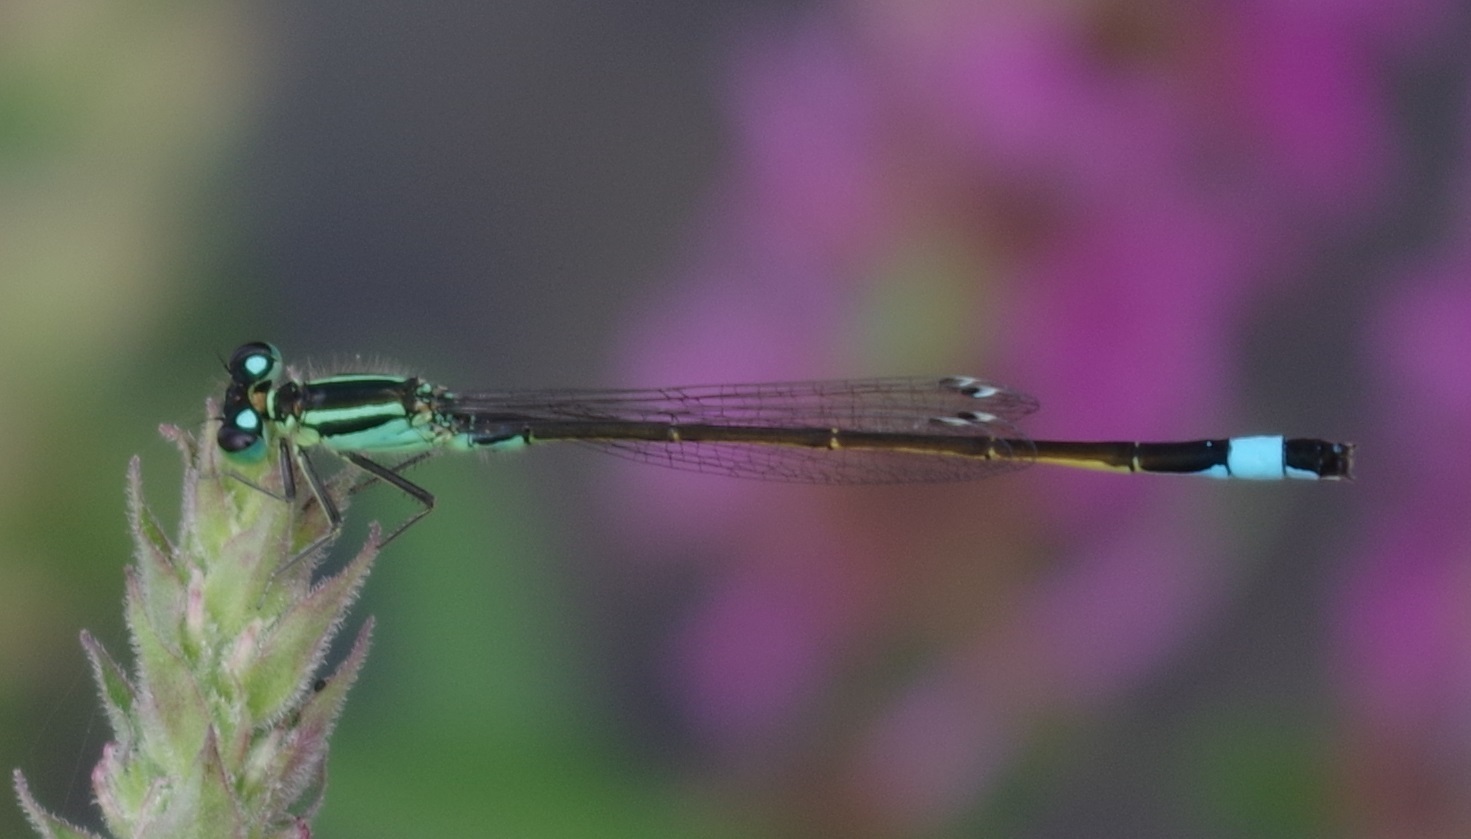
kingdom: Animalia
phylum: Arthropoda
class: Insecta
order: Odonata
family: Coenagrionidae
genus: Ischnura
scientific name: Ischnura elegans
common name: Blue-tailed damselfly
